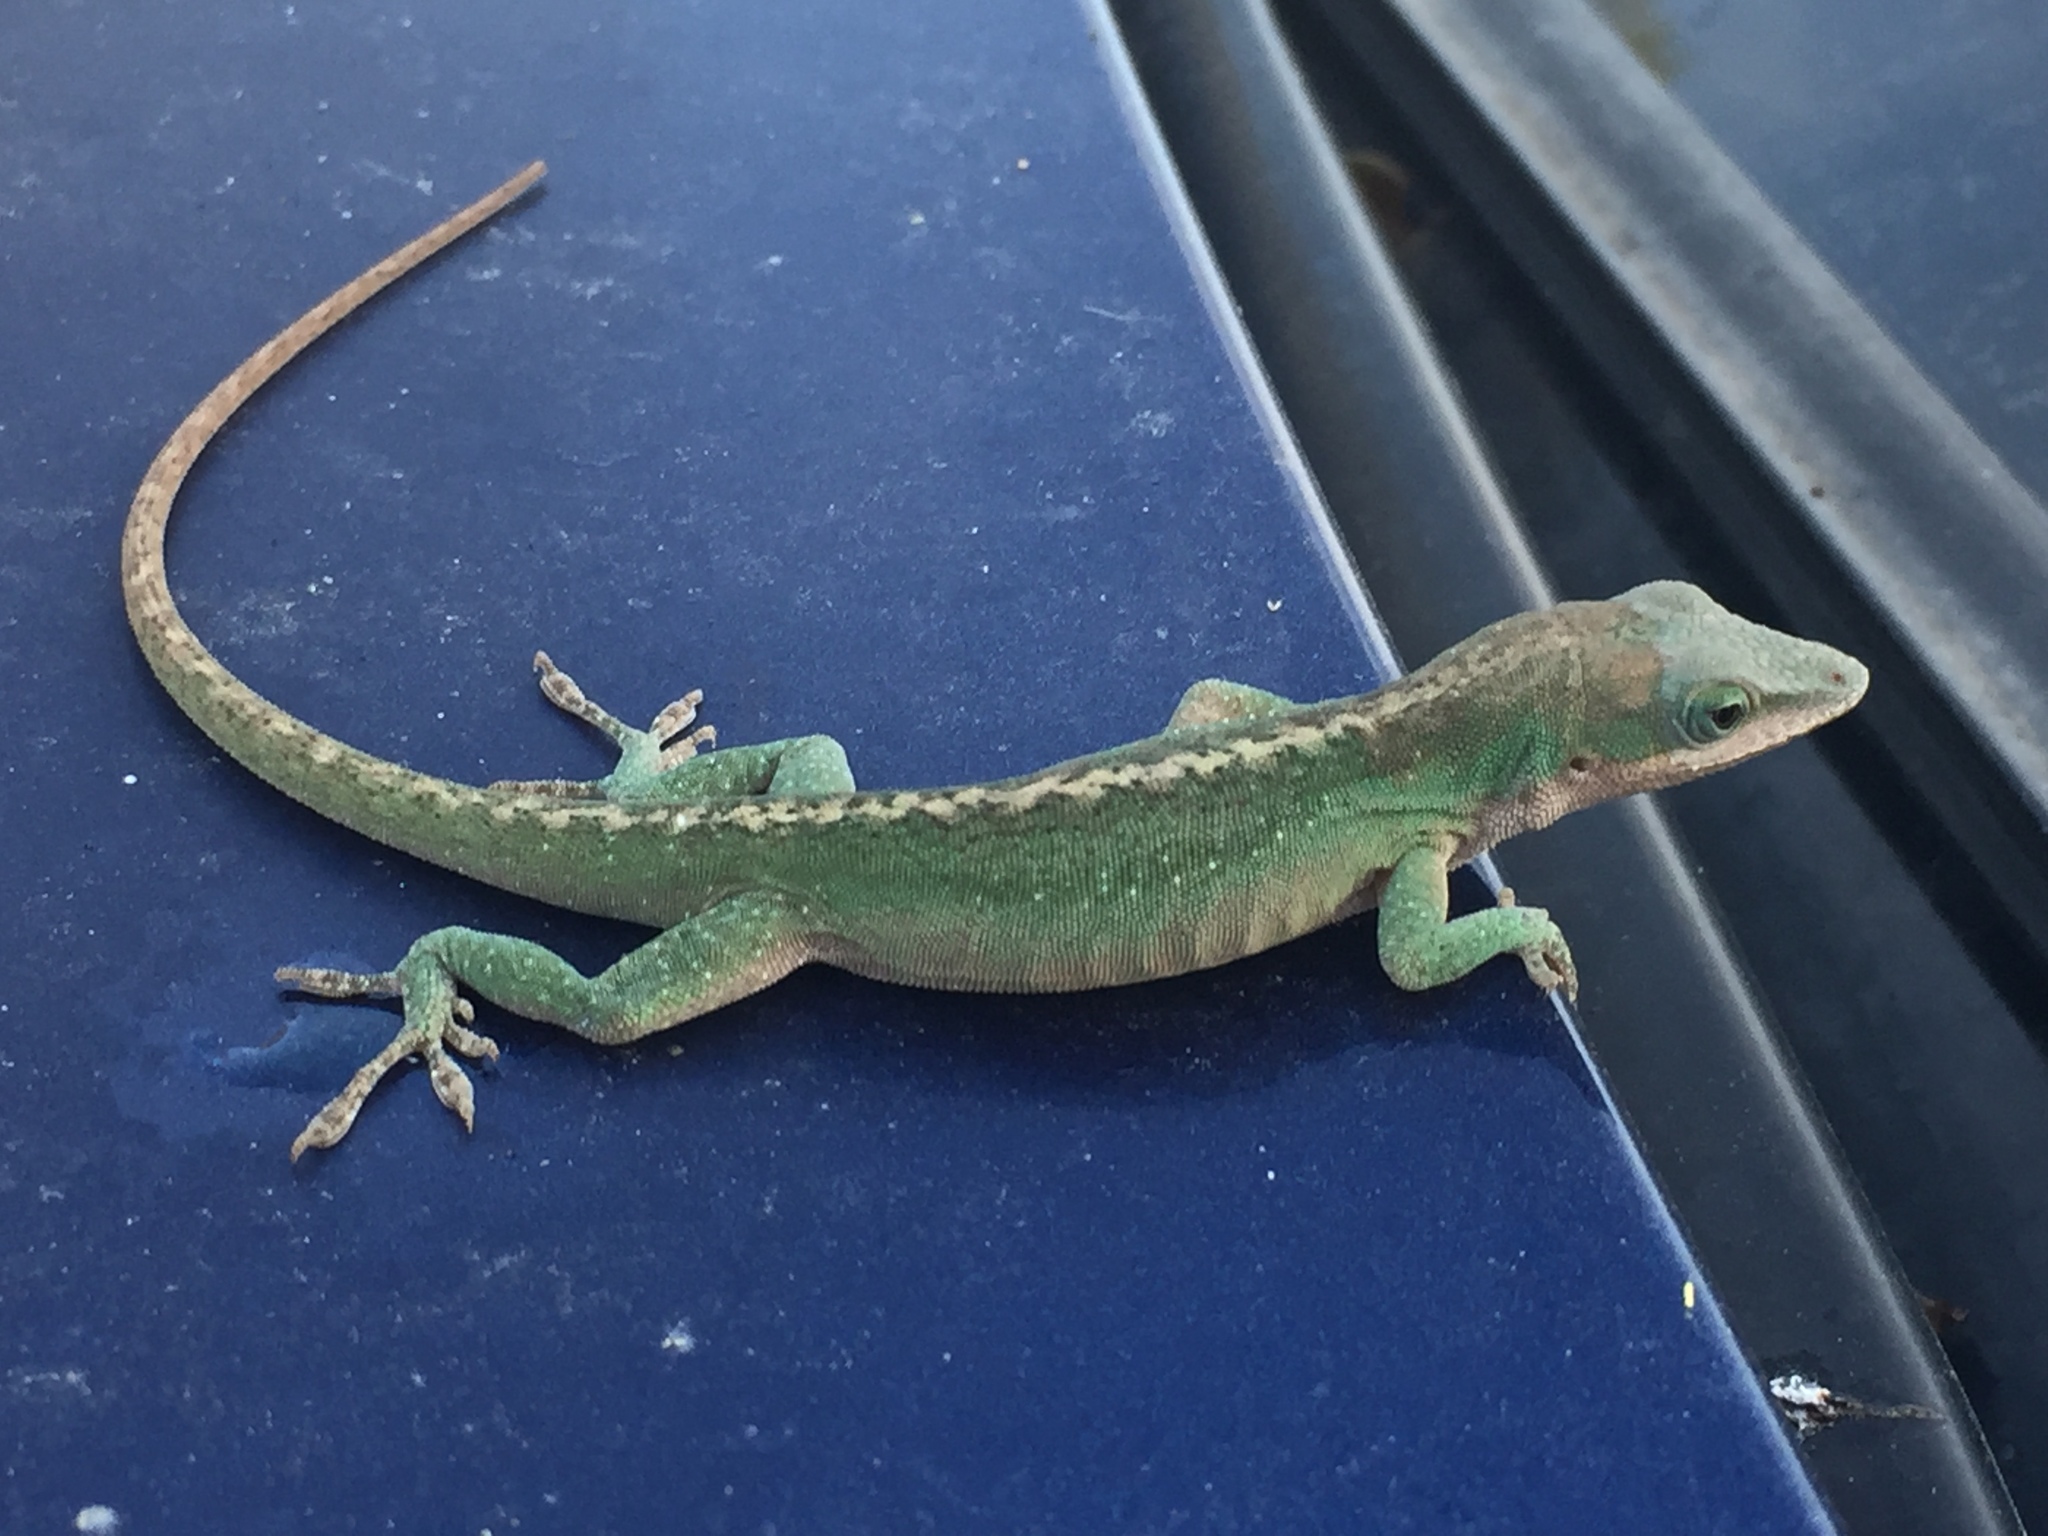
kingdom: Animalia
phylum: Chordata
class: Squamata
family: Dactyloidae
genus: Anolis
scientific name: Anolis carolinensis
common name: Green anole
